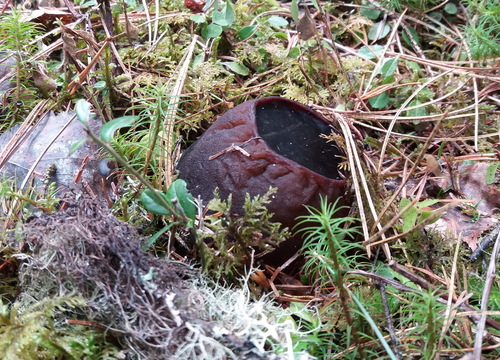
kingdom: Fungi
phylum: Ascomycota
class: Pezizomycetes
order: Pezizales
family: Sarcosomataceae
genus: Sarcosoma
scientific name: Sarcosoma globosum
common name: Charred-pancake cup
